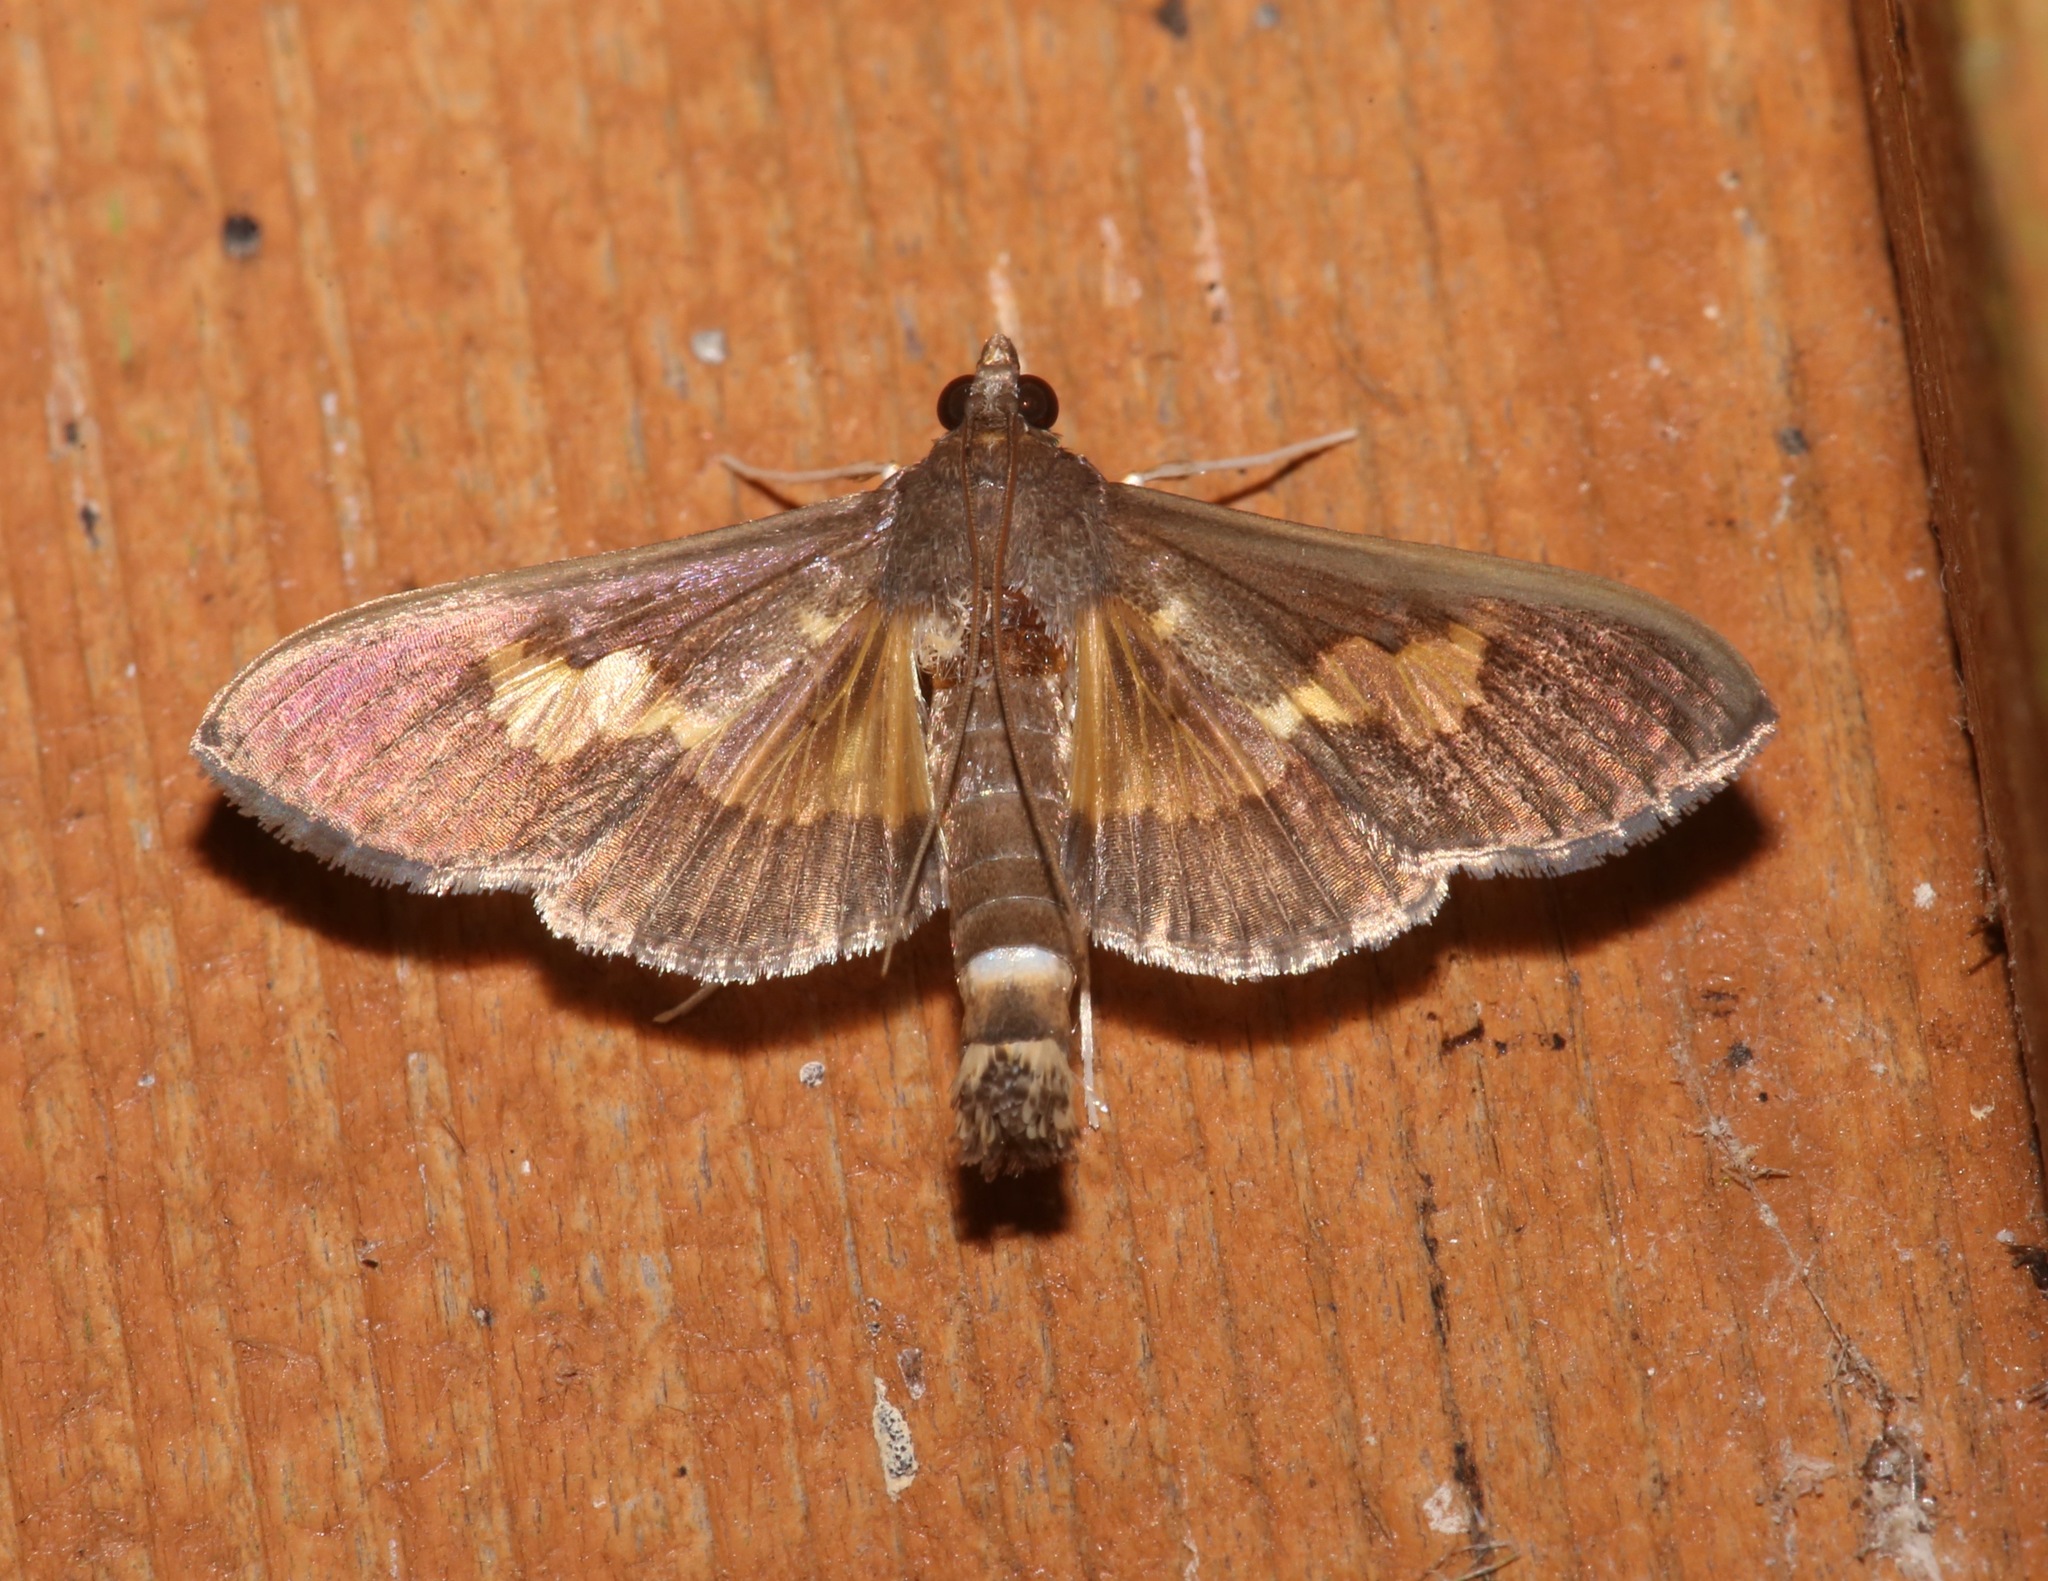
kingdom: Animalia
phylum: Arthropoda
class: Insecta
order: Lepidoptera
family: Crambidae
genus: Cryptographis
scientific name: Cryptographis nitidalis
